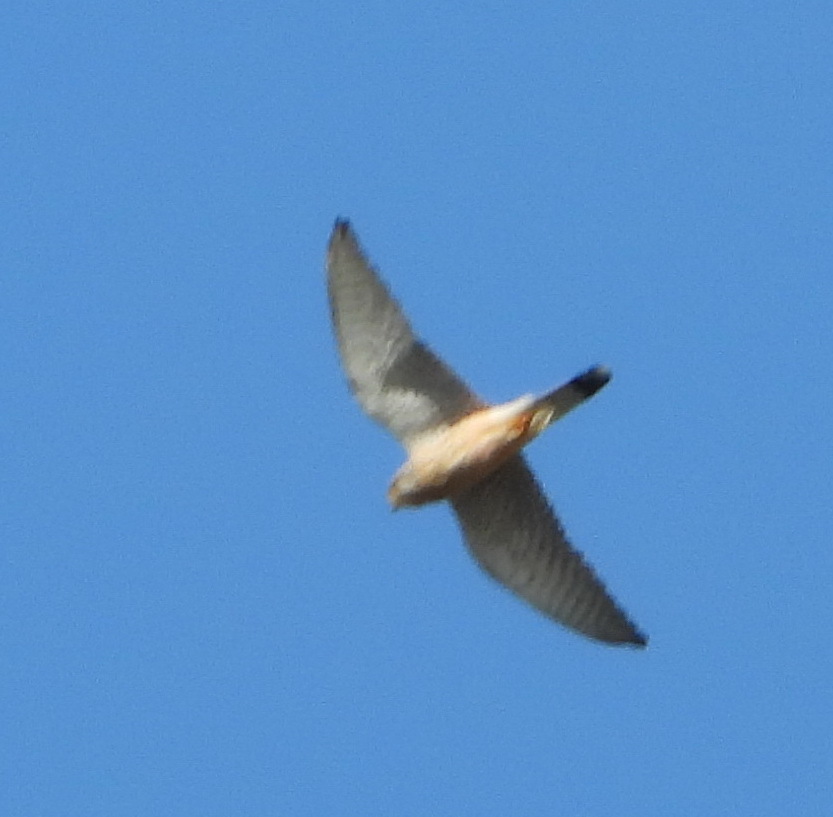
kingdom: Animalia
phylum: Chordata
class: Aves
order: Falconiformes
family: Falconidae
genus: Falco
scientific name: Falco tinnunculus
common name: Common kestrel
